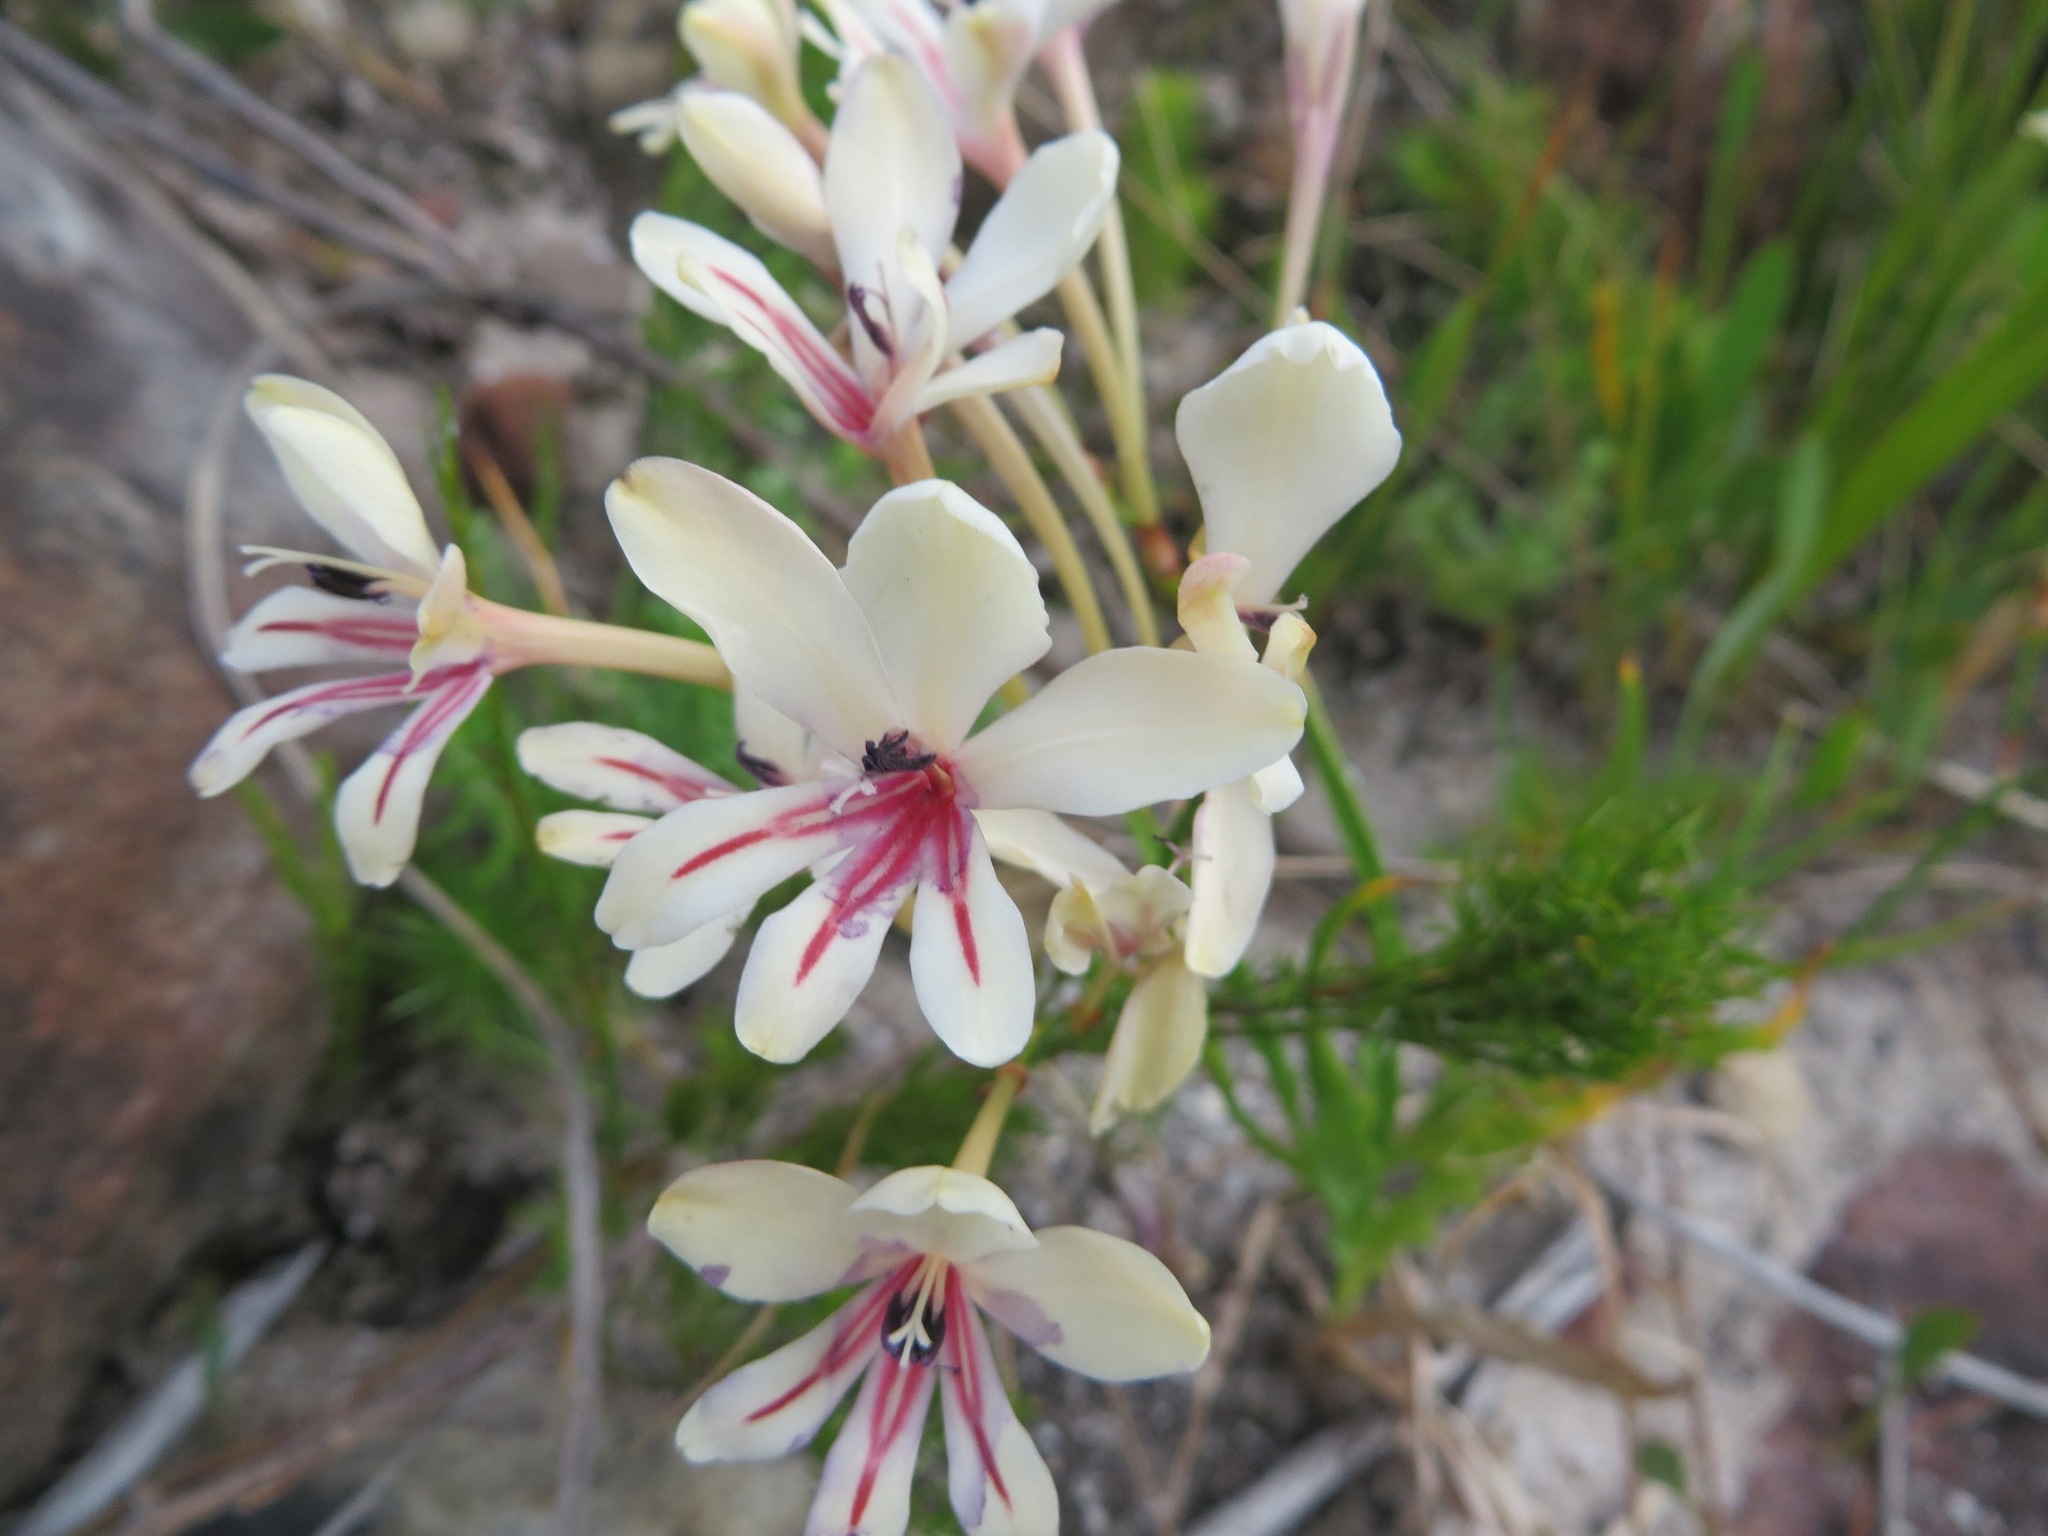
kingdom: Plantae
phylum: Tracheophyta
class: Liliopsida
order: Asparagales
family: Iridaceae
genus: Tritonia
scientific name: Tritonia undulata
